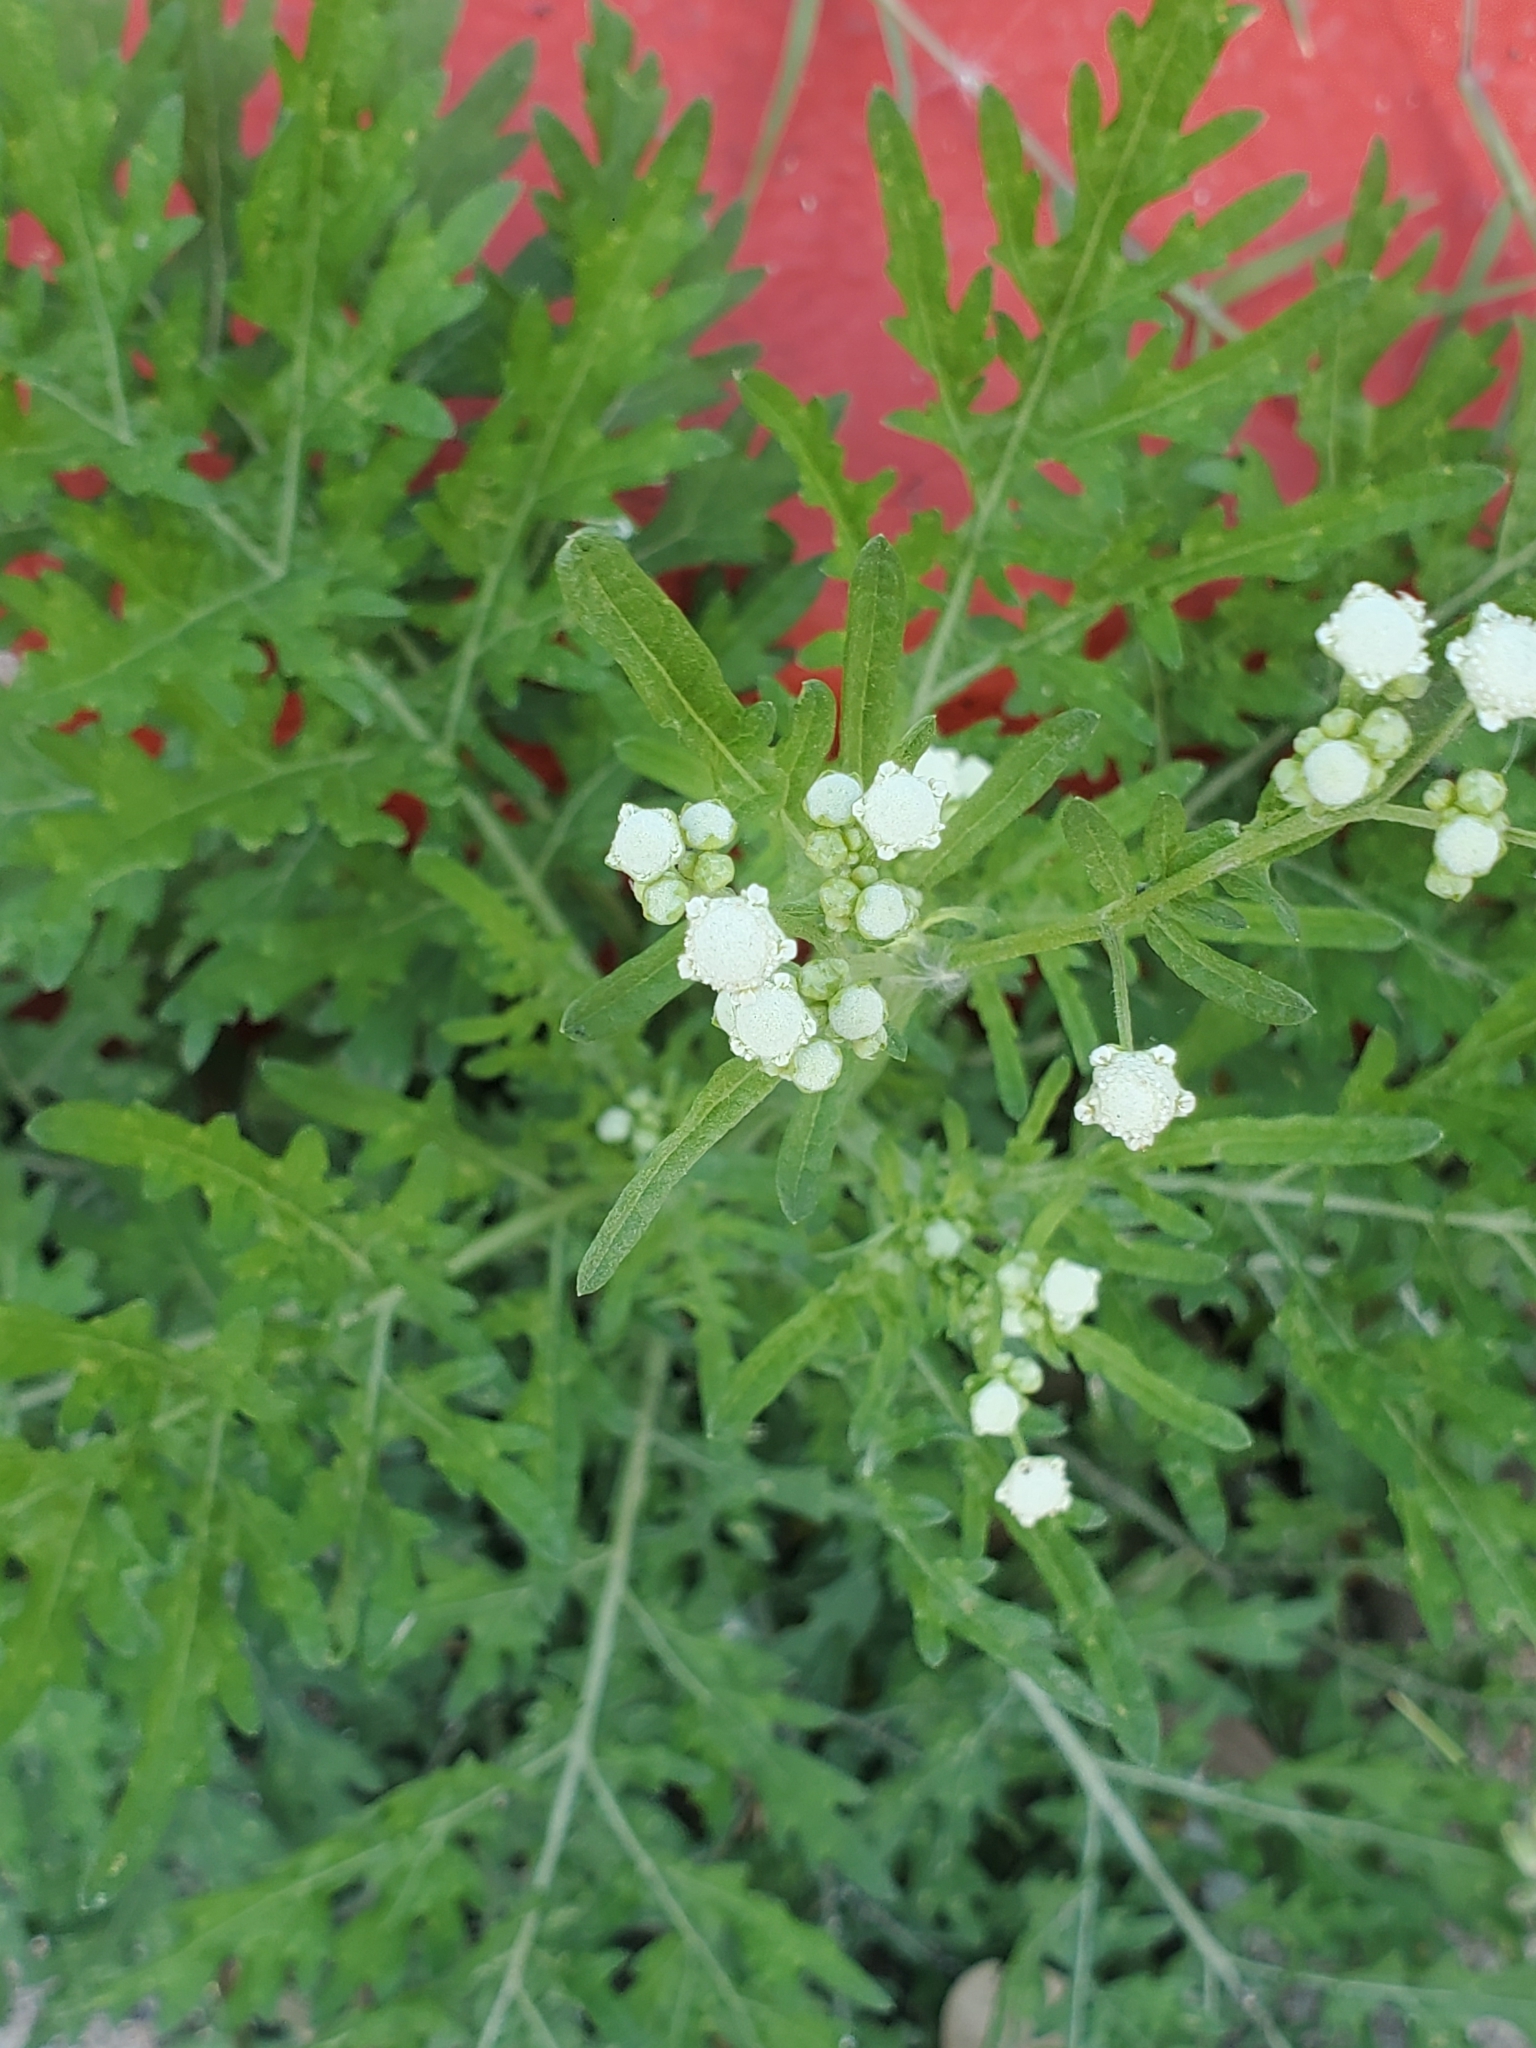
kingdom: Plantae
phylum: Tracheophyta
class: Magnoliopsida
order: Asterales
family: Asteraceae
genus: Parthenium
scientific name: Parthenium hysterophorus
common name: Santa maria feverfew
